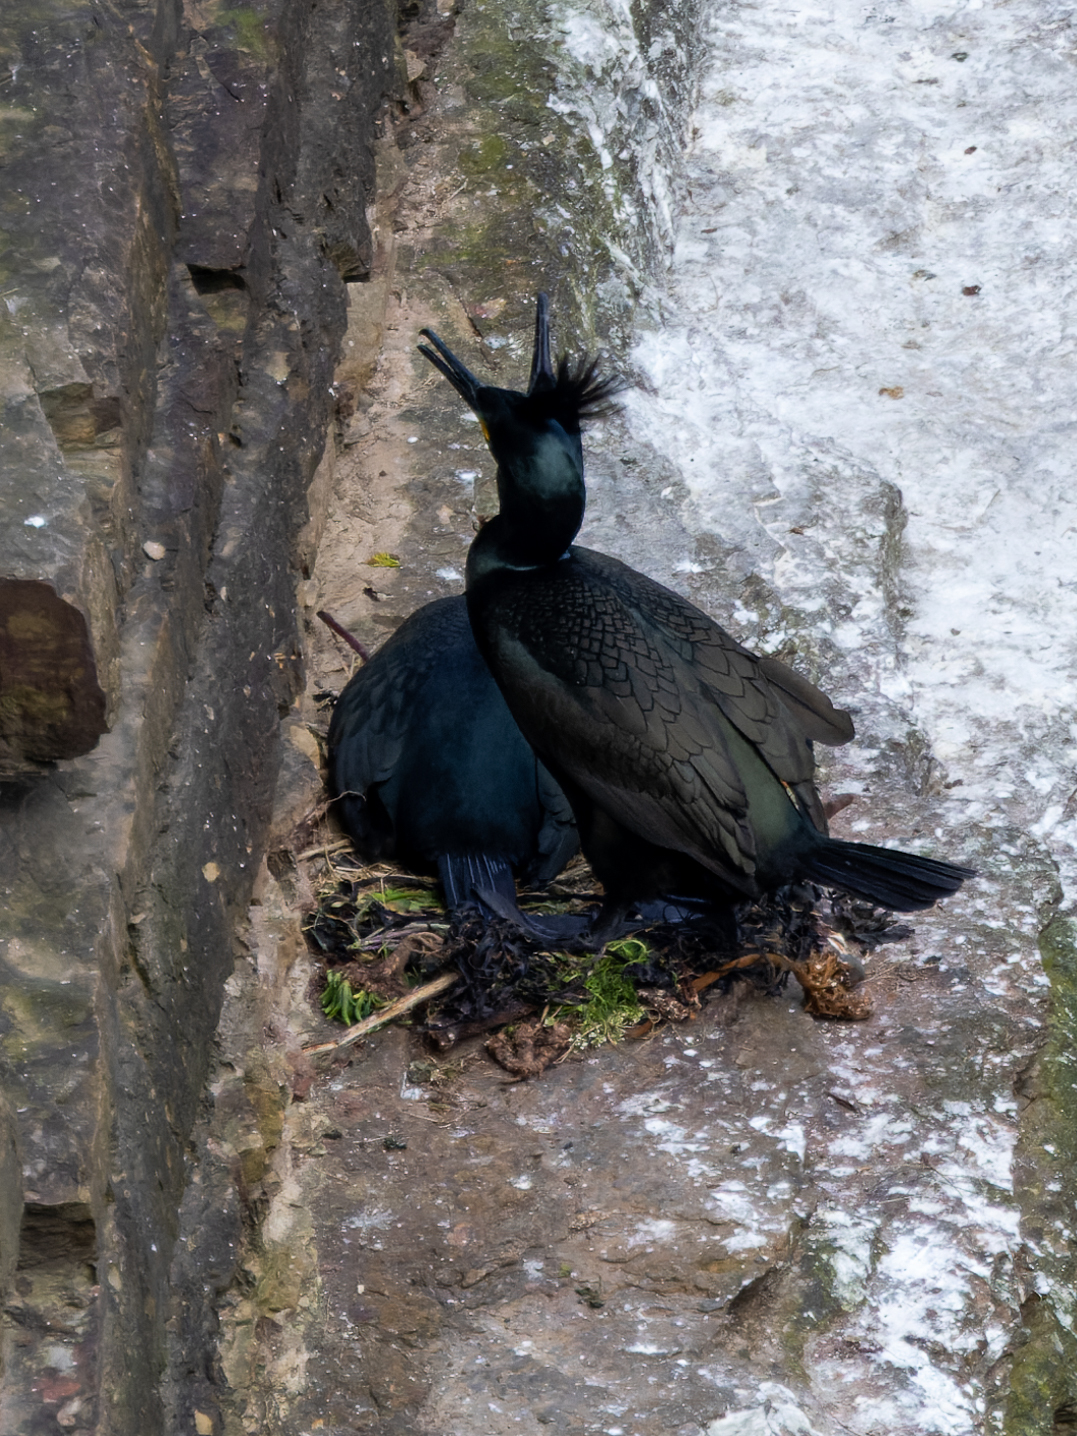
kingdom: Animalia
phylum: Chordata
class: Aves
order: Suliformes
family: Phalacrocoracidae
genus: Phalacrocorax
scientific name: Phalacrocorax aristotelis
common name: European shag
